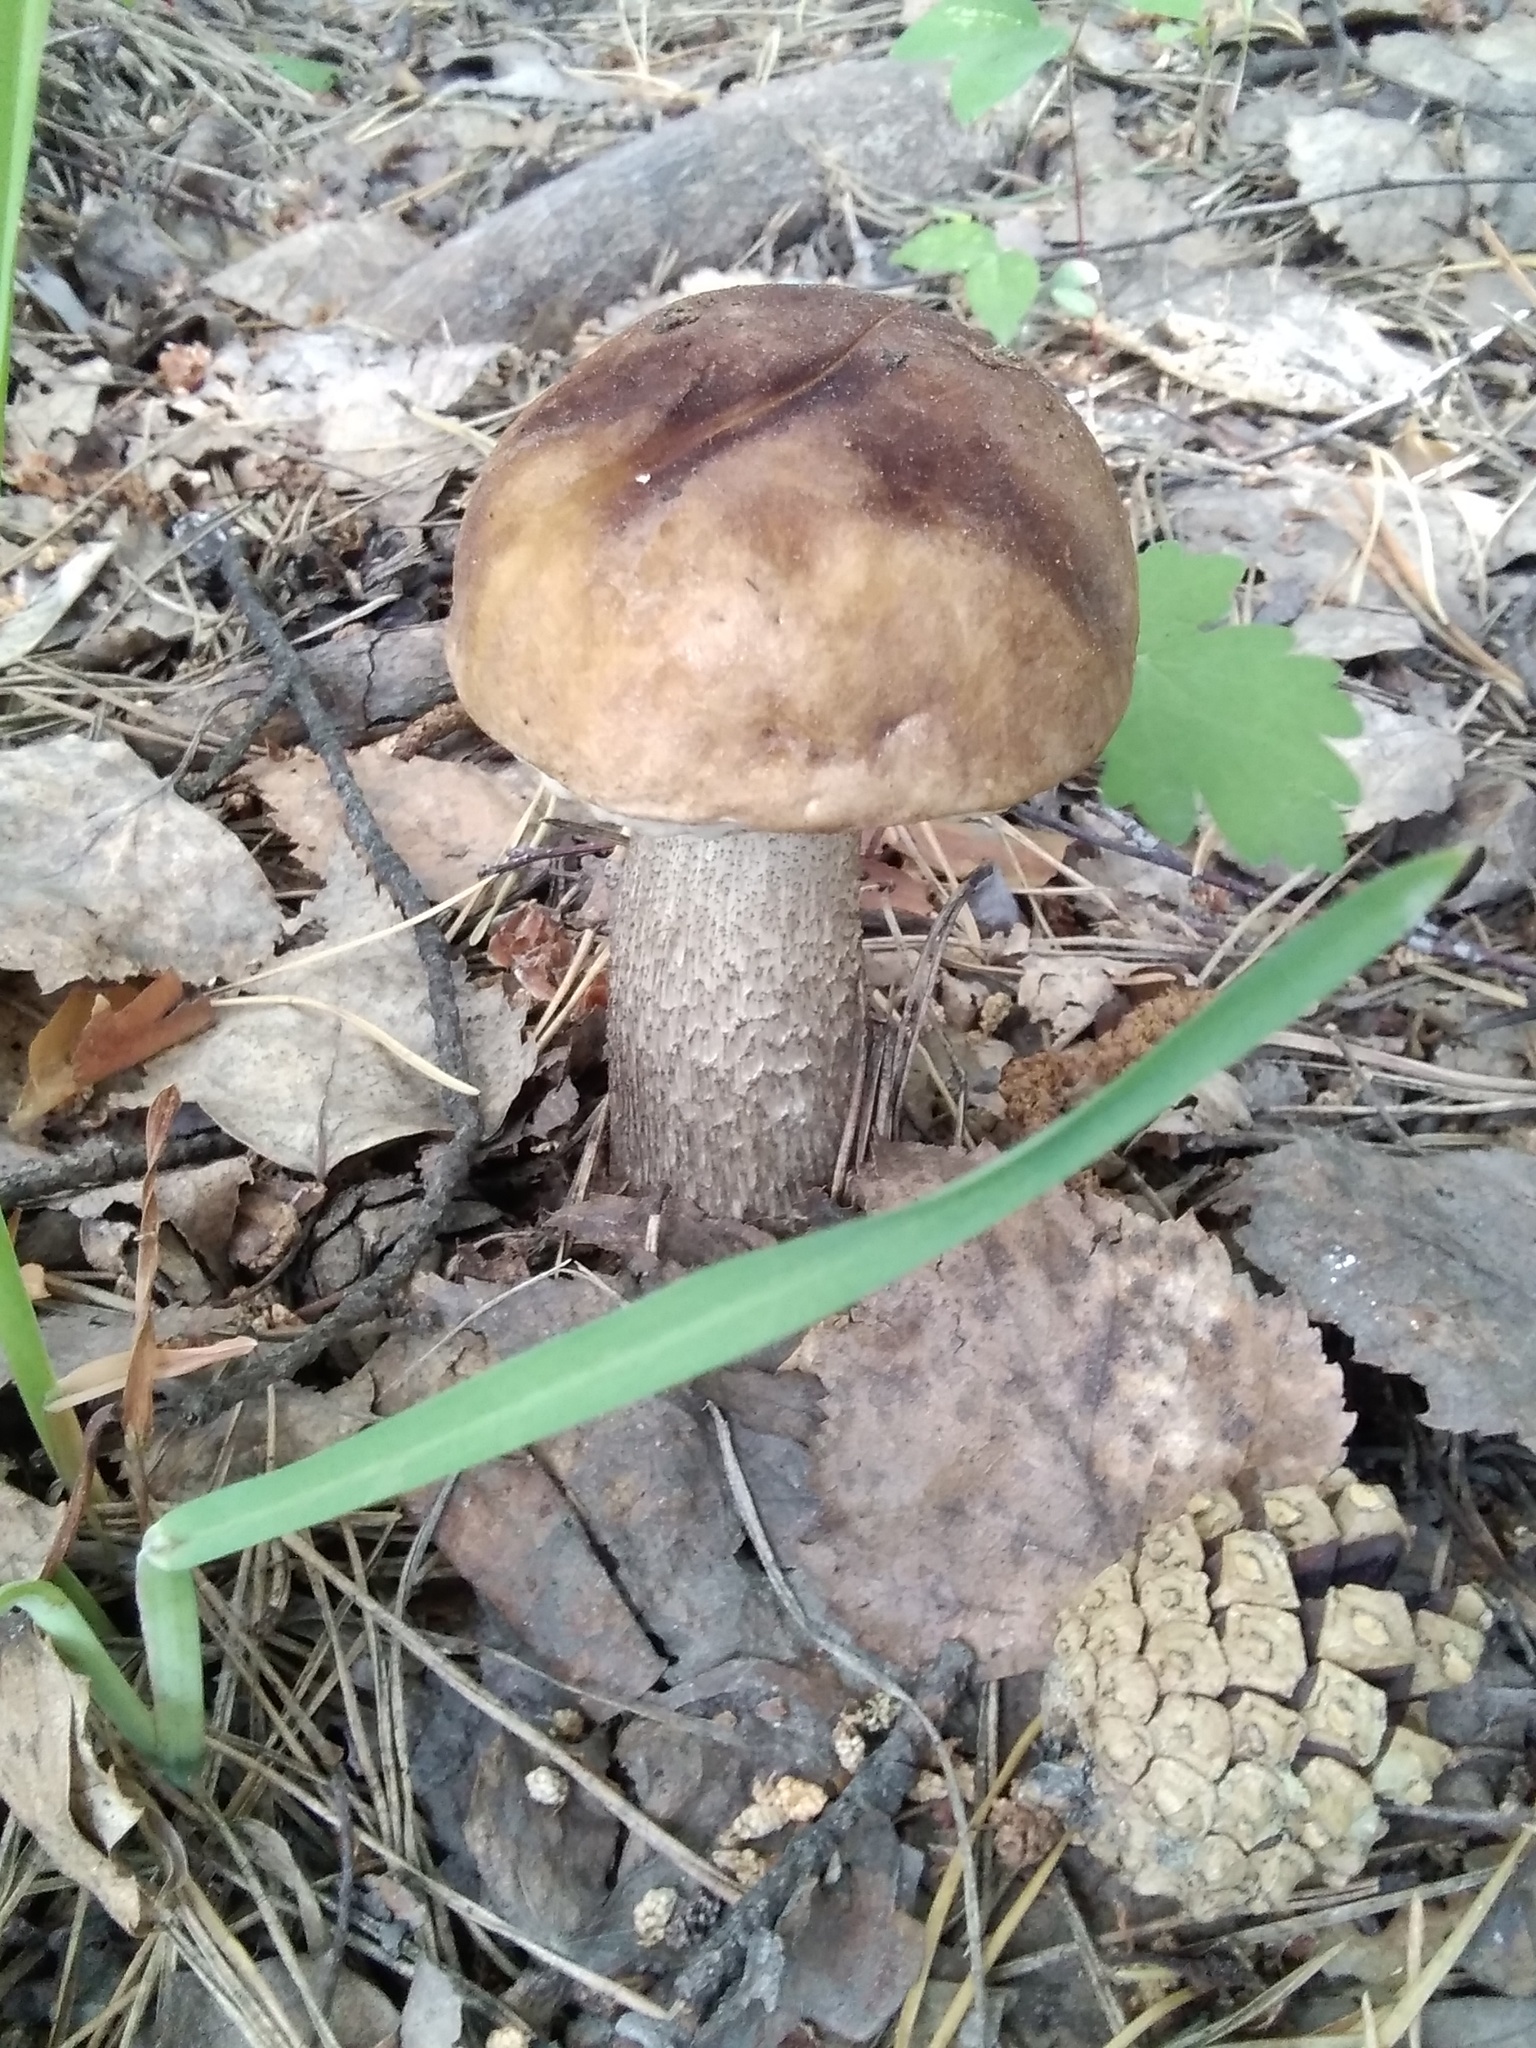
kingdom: Fungi
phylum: Basidiomycota
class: Agaricomycetes
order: Boletales
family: Boletaceae
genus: Leccinum
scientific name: Leccinum duriusculum
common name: Slate bolete
